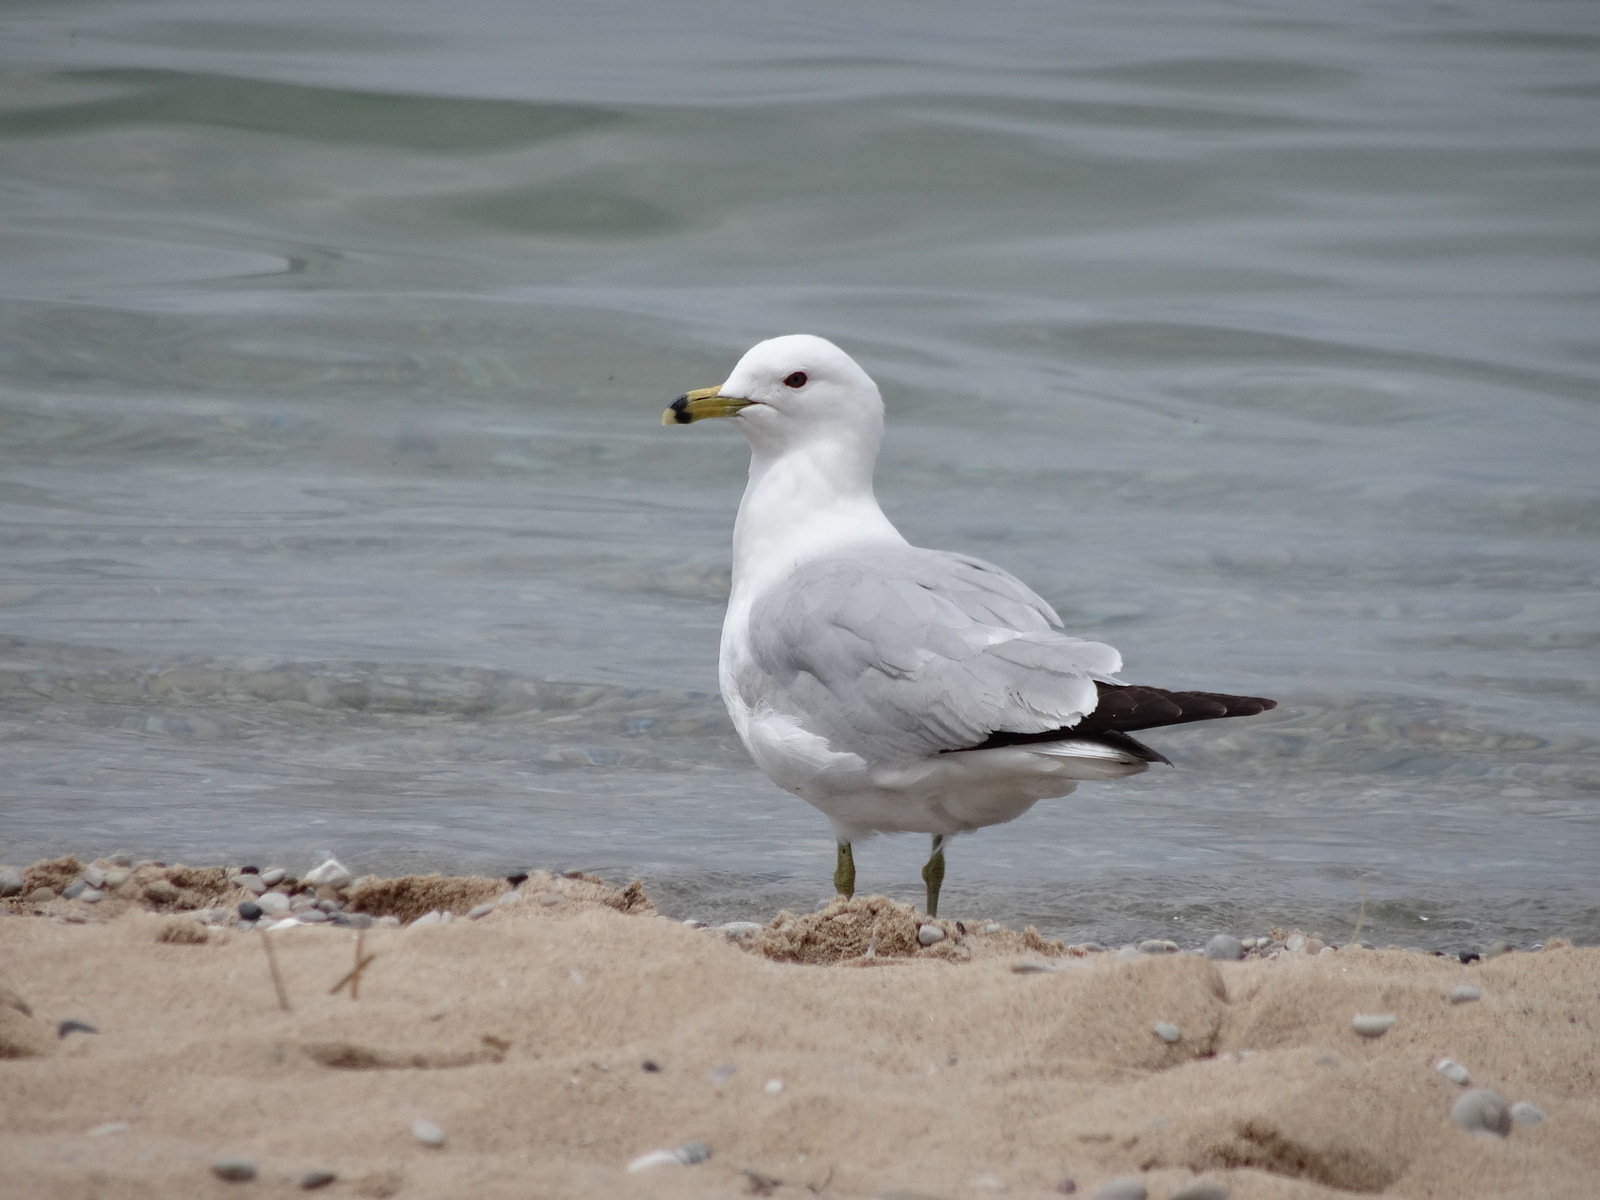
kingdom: Animalia
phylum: Chordata
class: Aves
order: Charadriiformes
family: Laridae
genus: Larus
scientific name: Larus delawarensis
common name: Ring-billed gull
